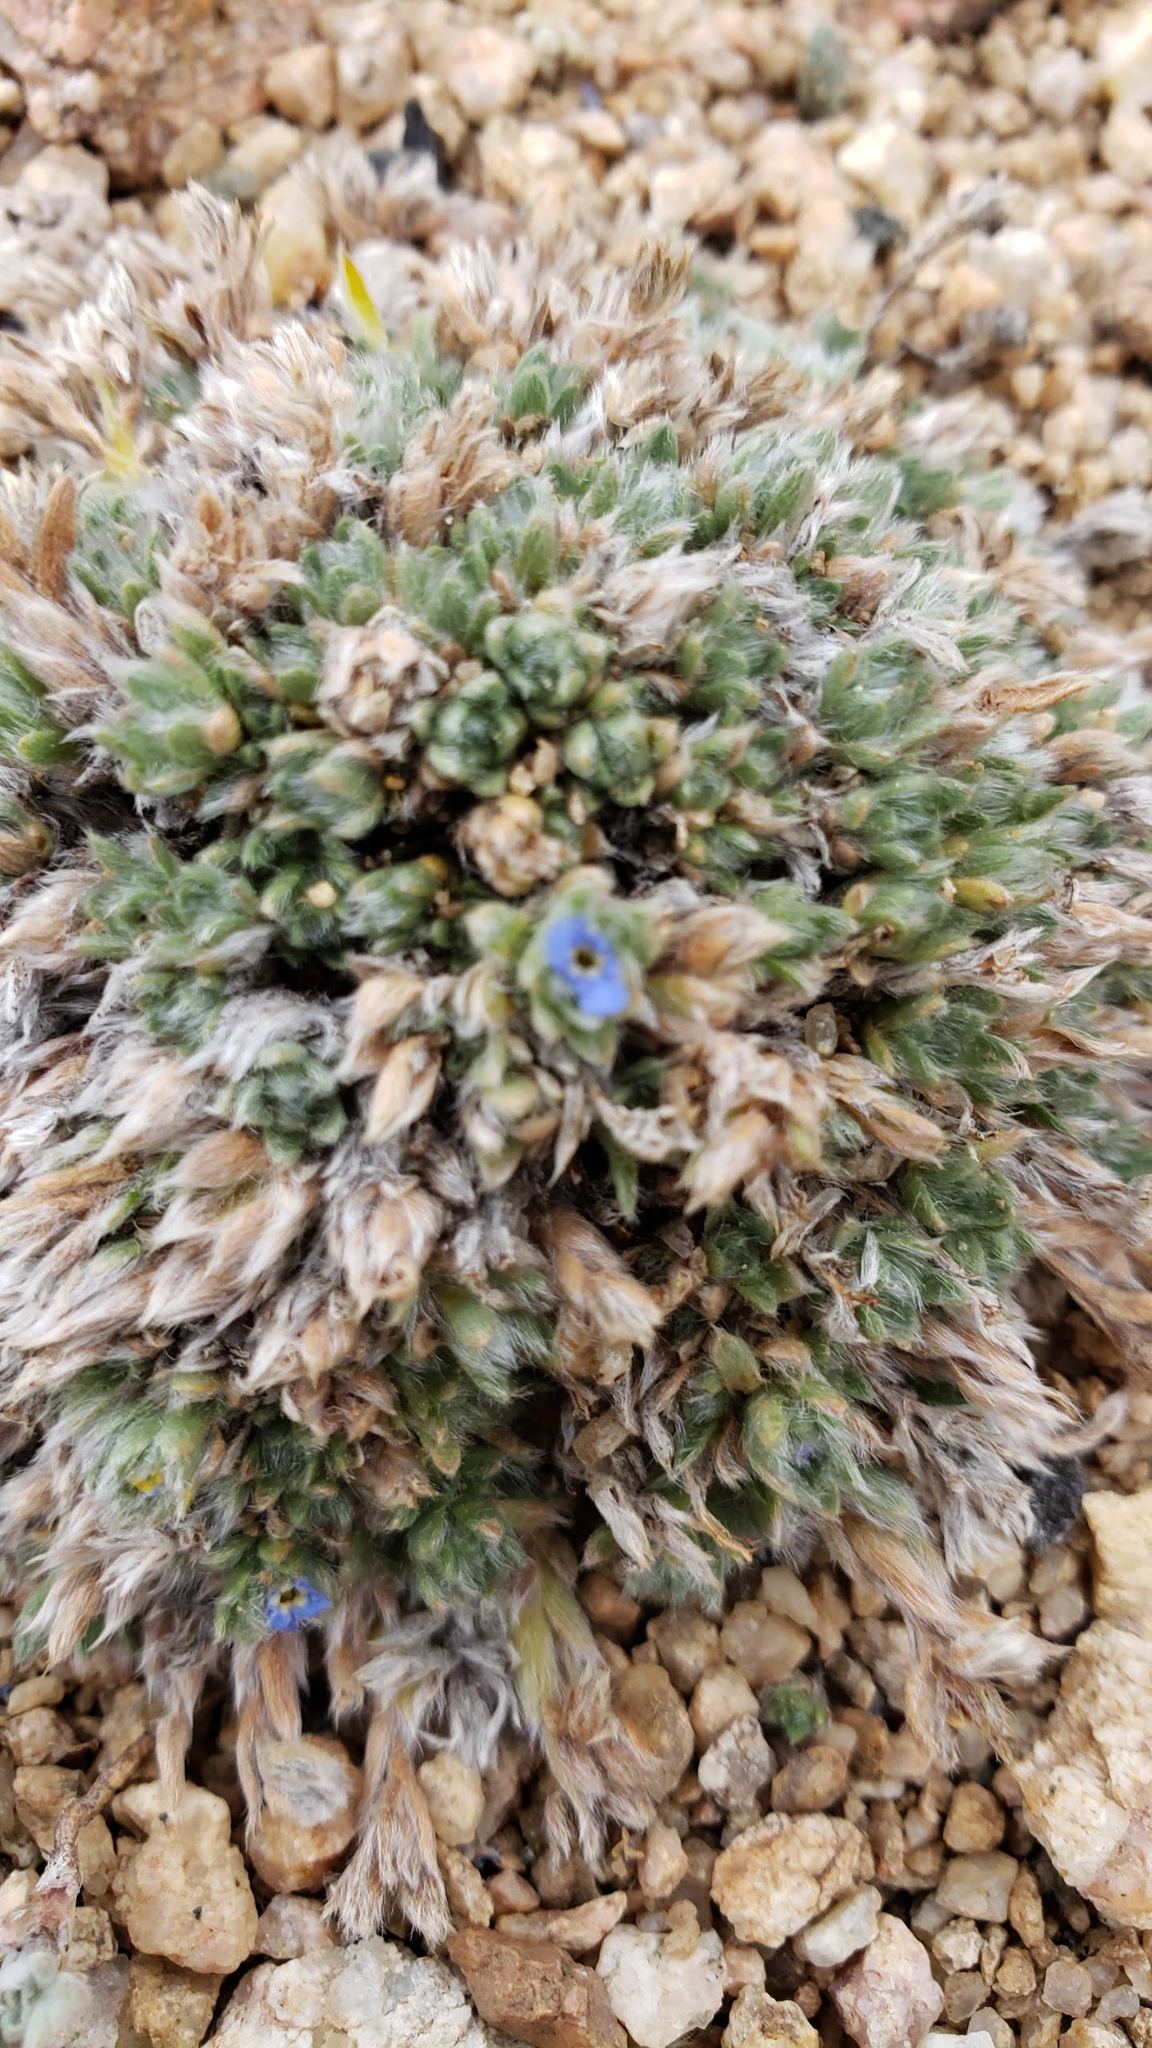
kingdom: Plantae
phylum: Tracheophyta
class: Magnoliopsida
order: Boraginales
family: Boraginaceae
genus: Eritrichium
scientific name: Eritrichium argenteum
